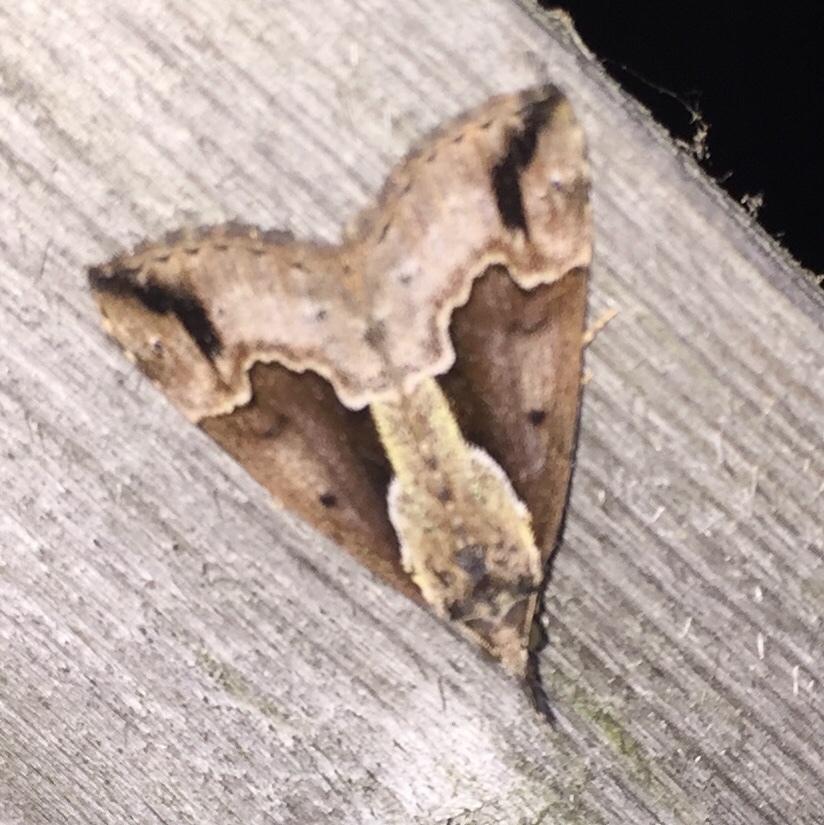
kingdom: Animalia
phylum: Arthropoda
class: Insecta
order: Lepidoptera
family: Erebidae
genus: Hypena
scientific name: Hypena baltimoralis
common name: Baltimore snout
